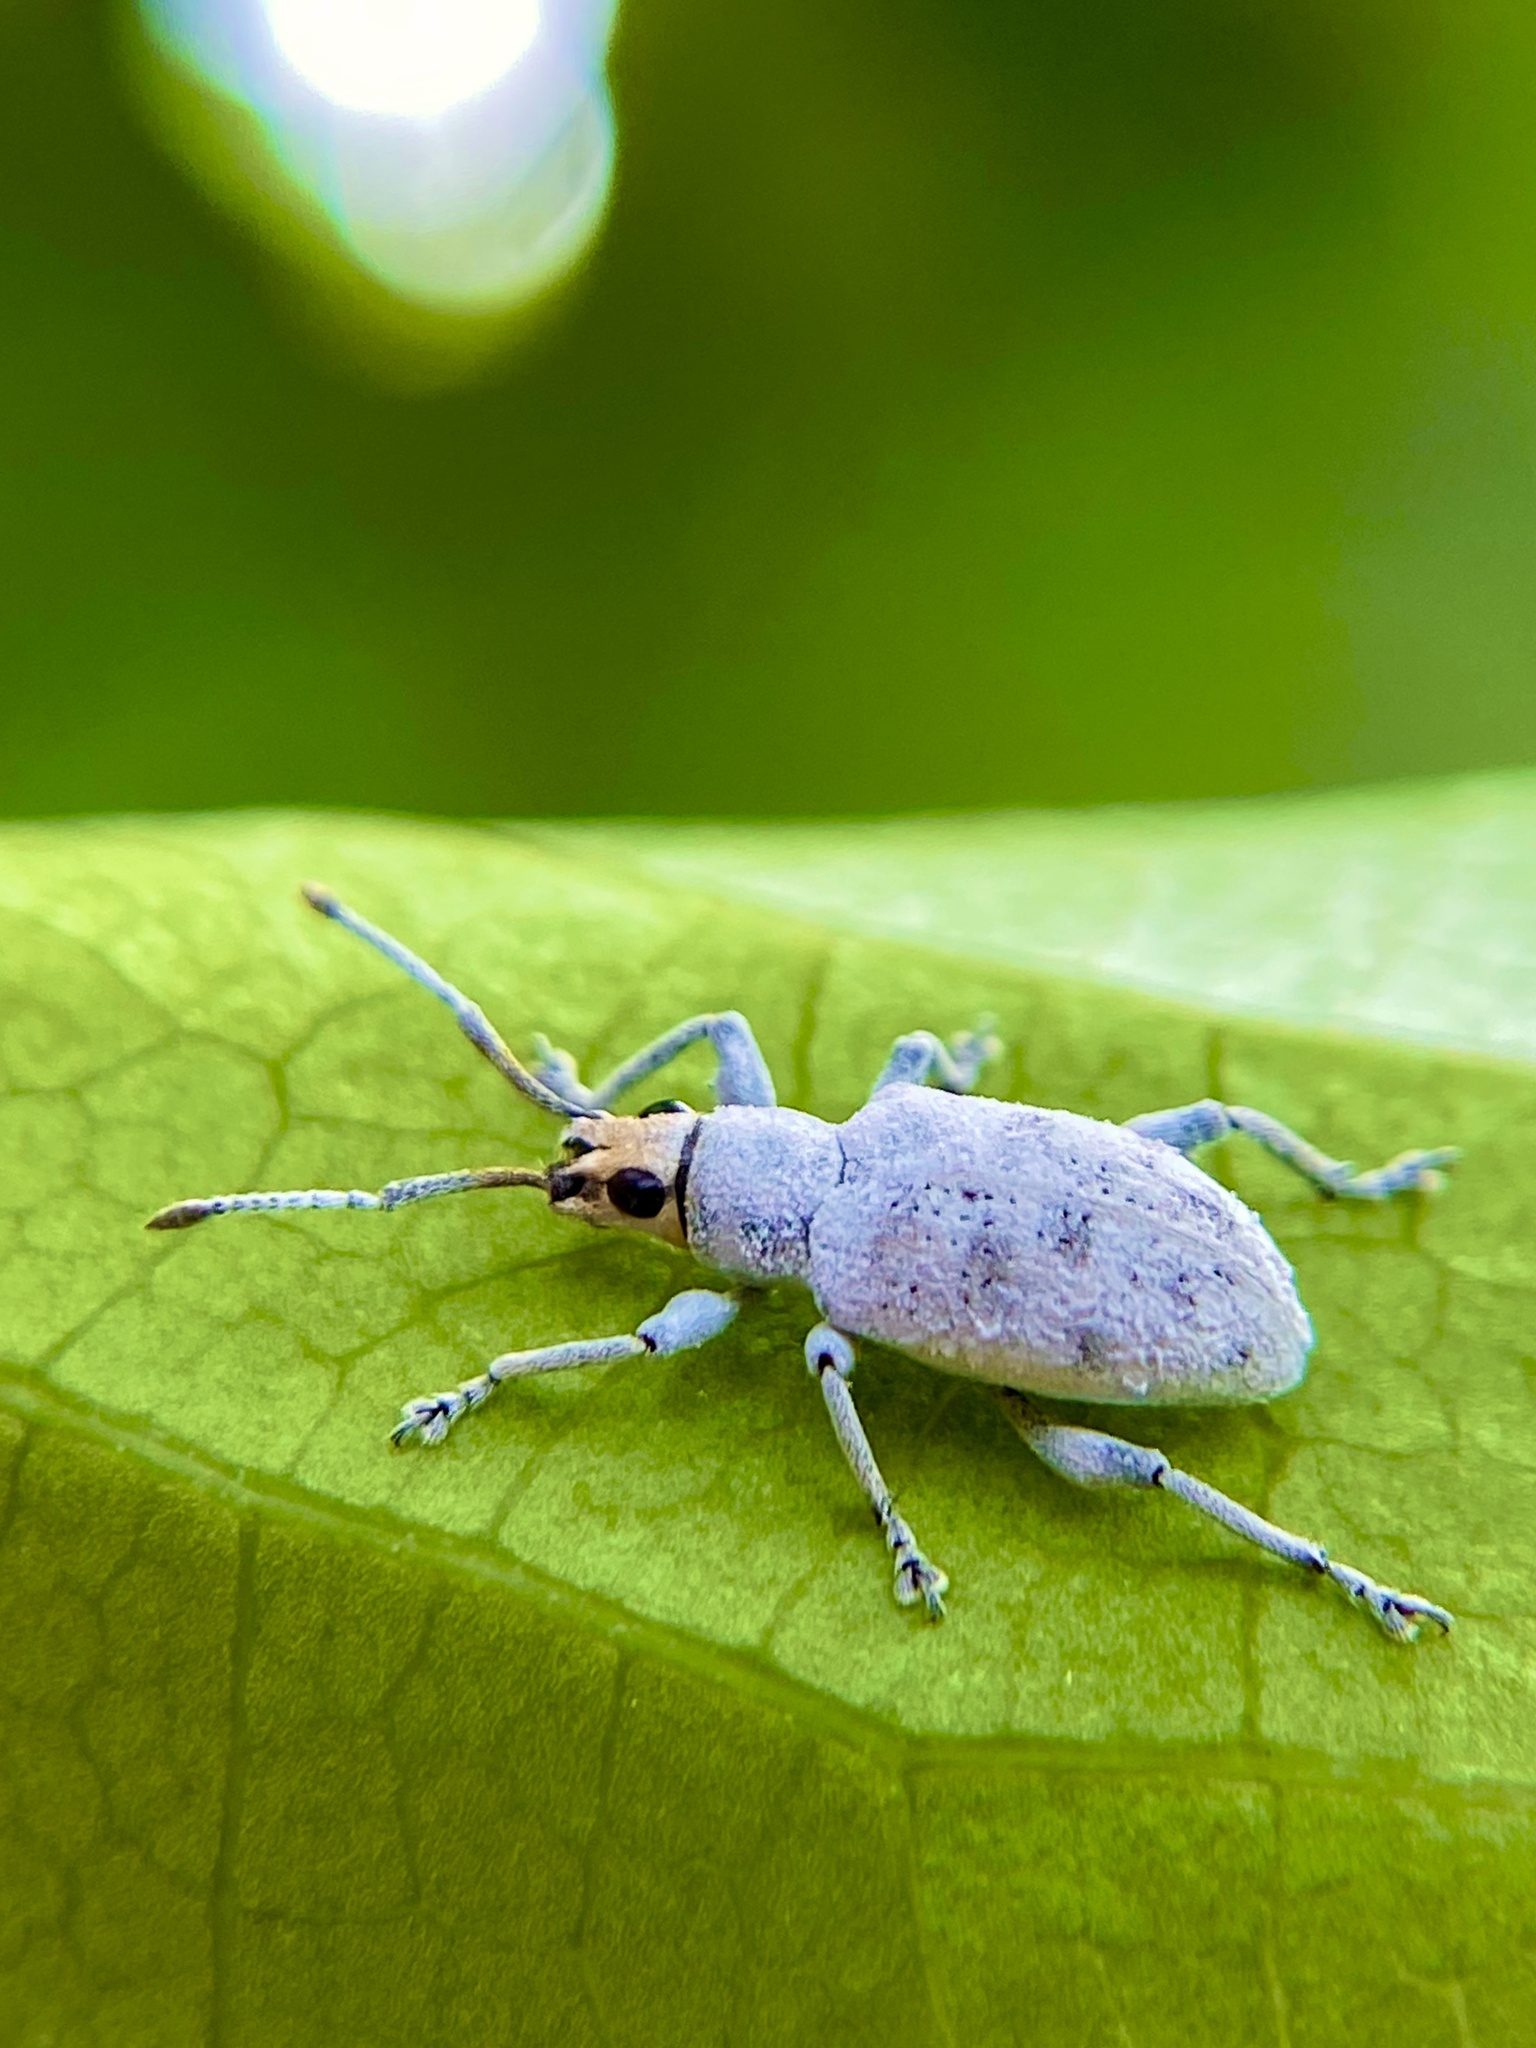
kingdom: Animalia
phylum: Arthropoda
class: Insecta
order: Coleoptera
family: Curculionidae
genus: Myllocerus
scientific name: Myllocerus undecimpustulatus
